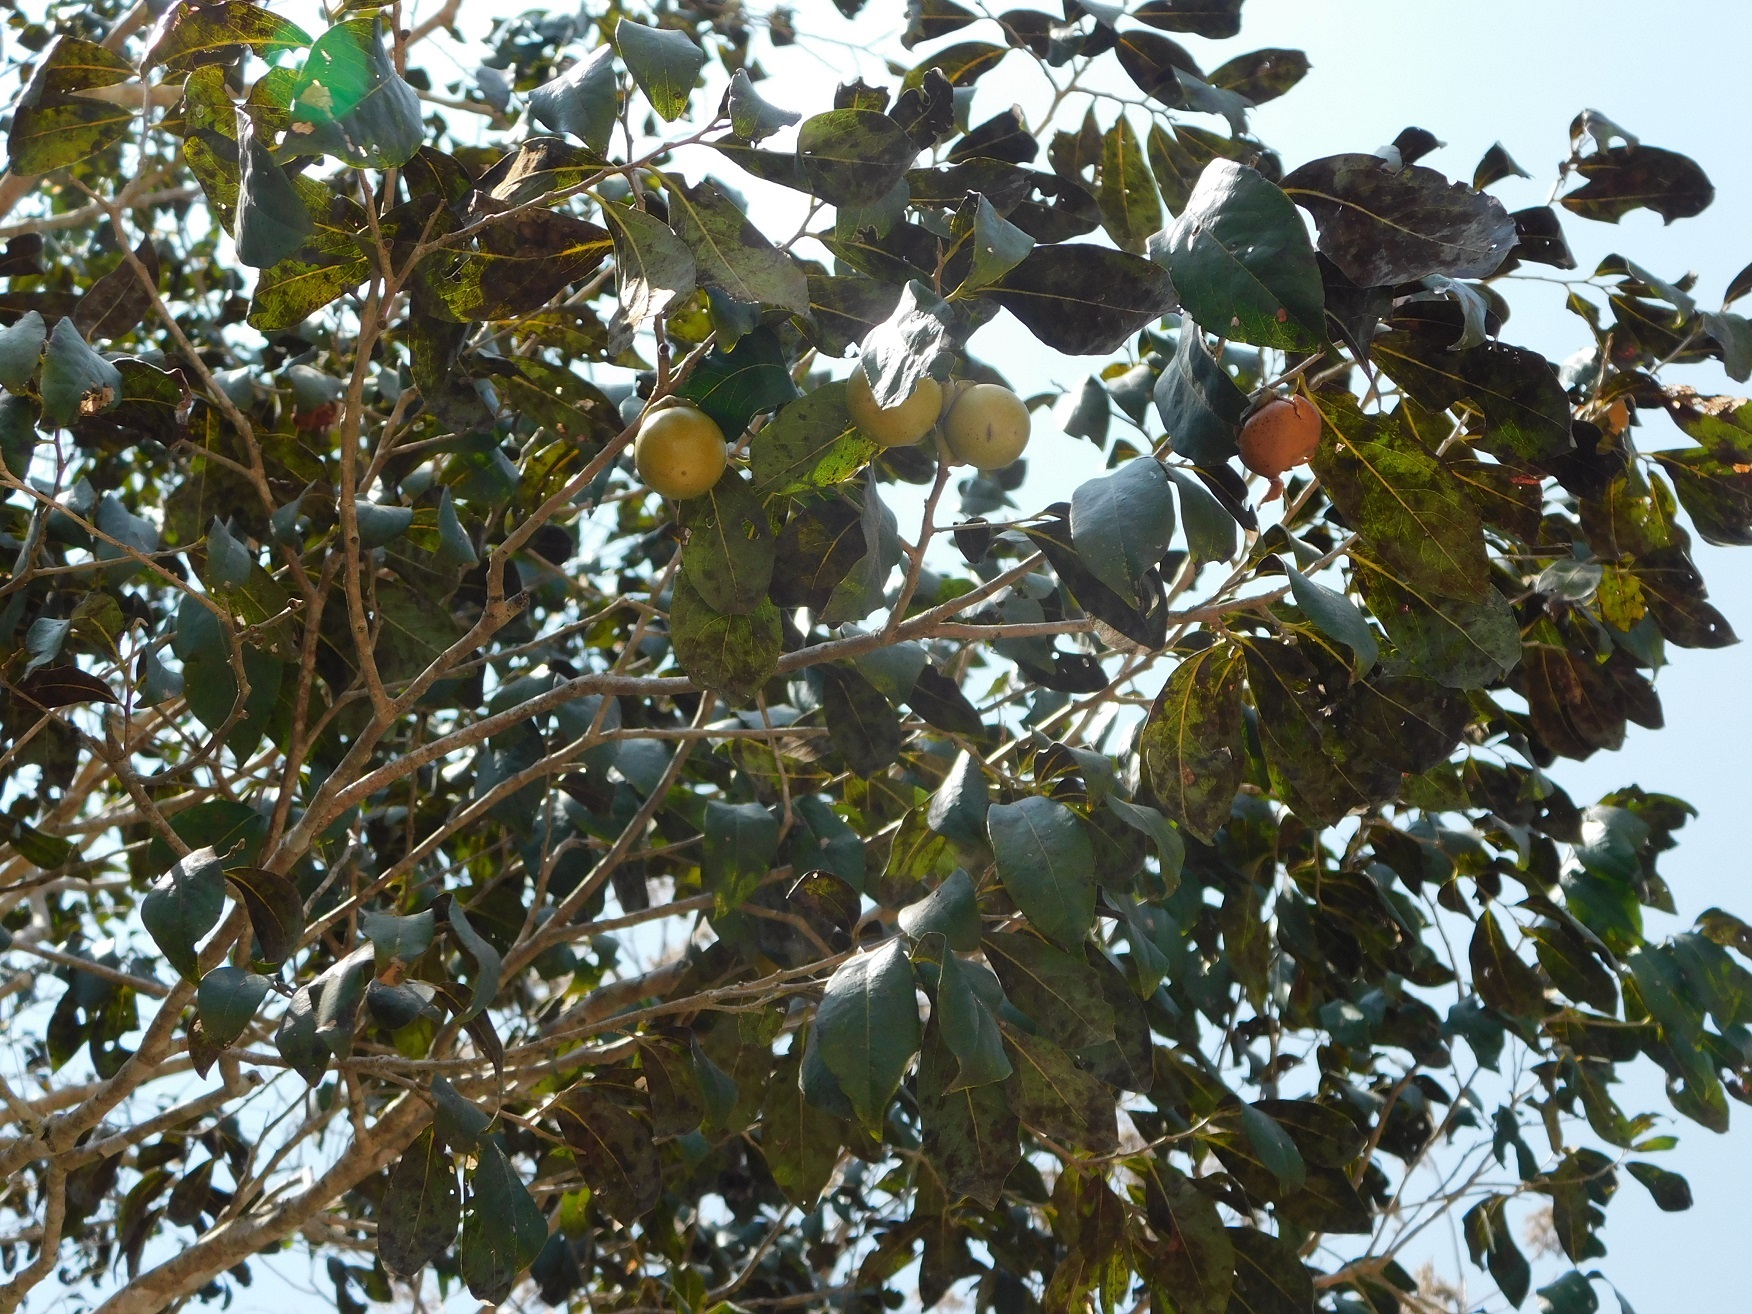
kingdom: Plantae
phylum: Tracheophyta
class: Magnoliopsida
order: Ericales
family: Ebenaceae
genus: Diospyros
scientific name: Diospyros salicifolia
